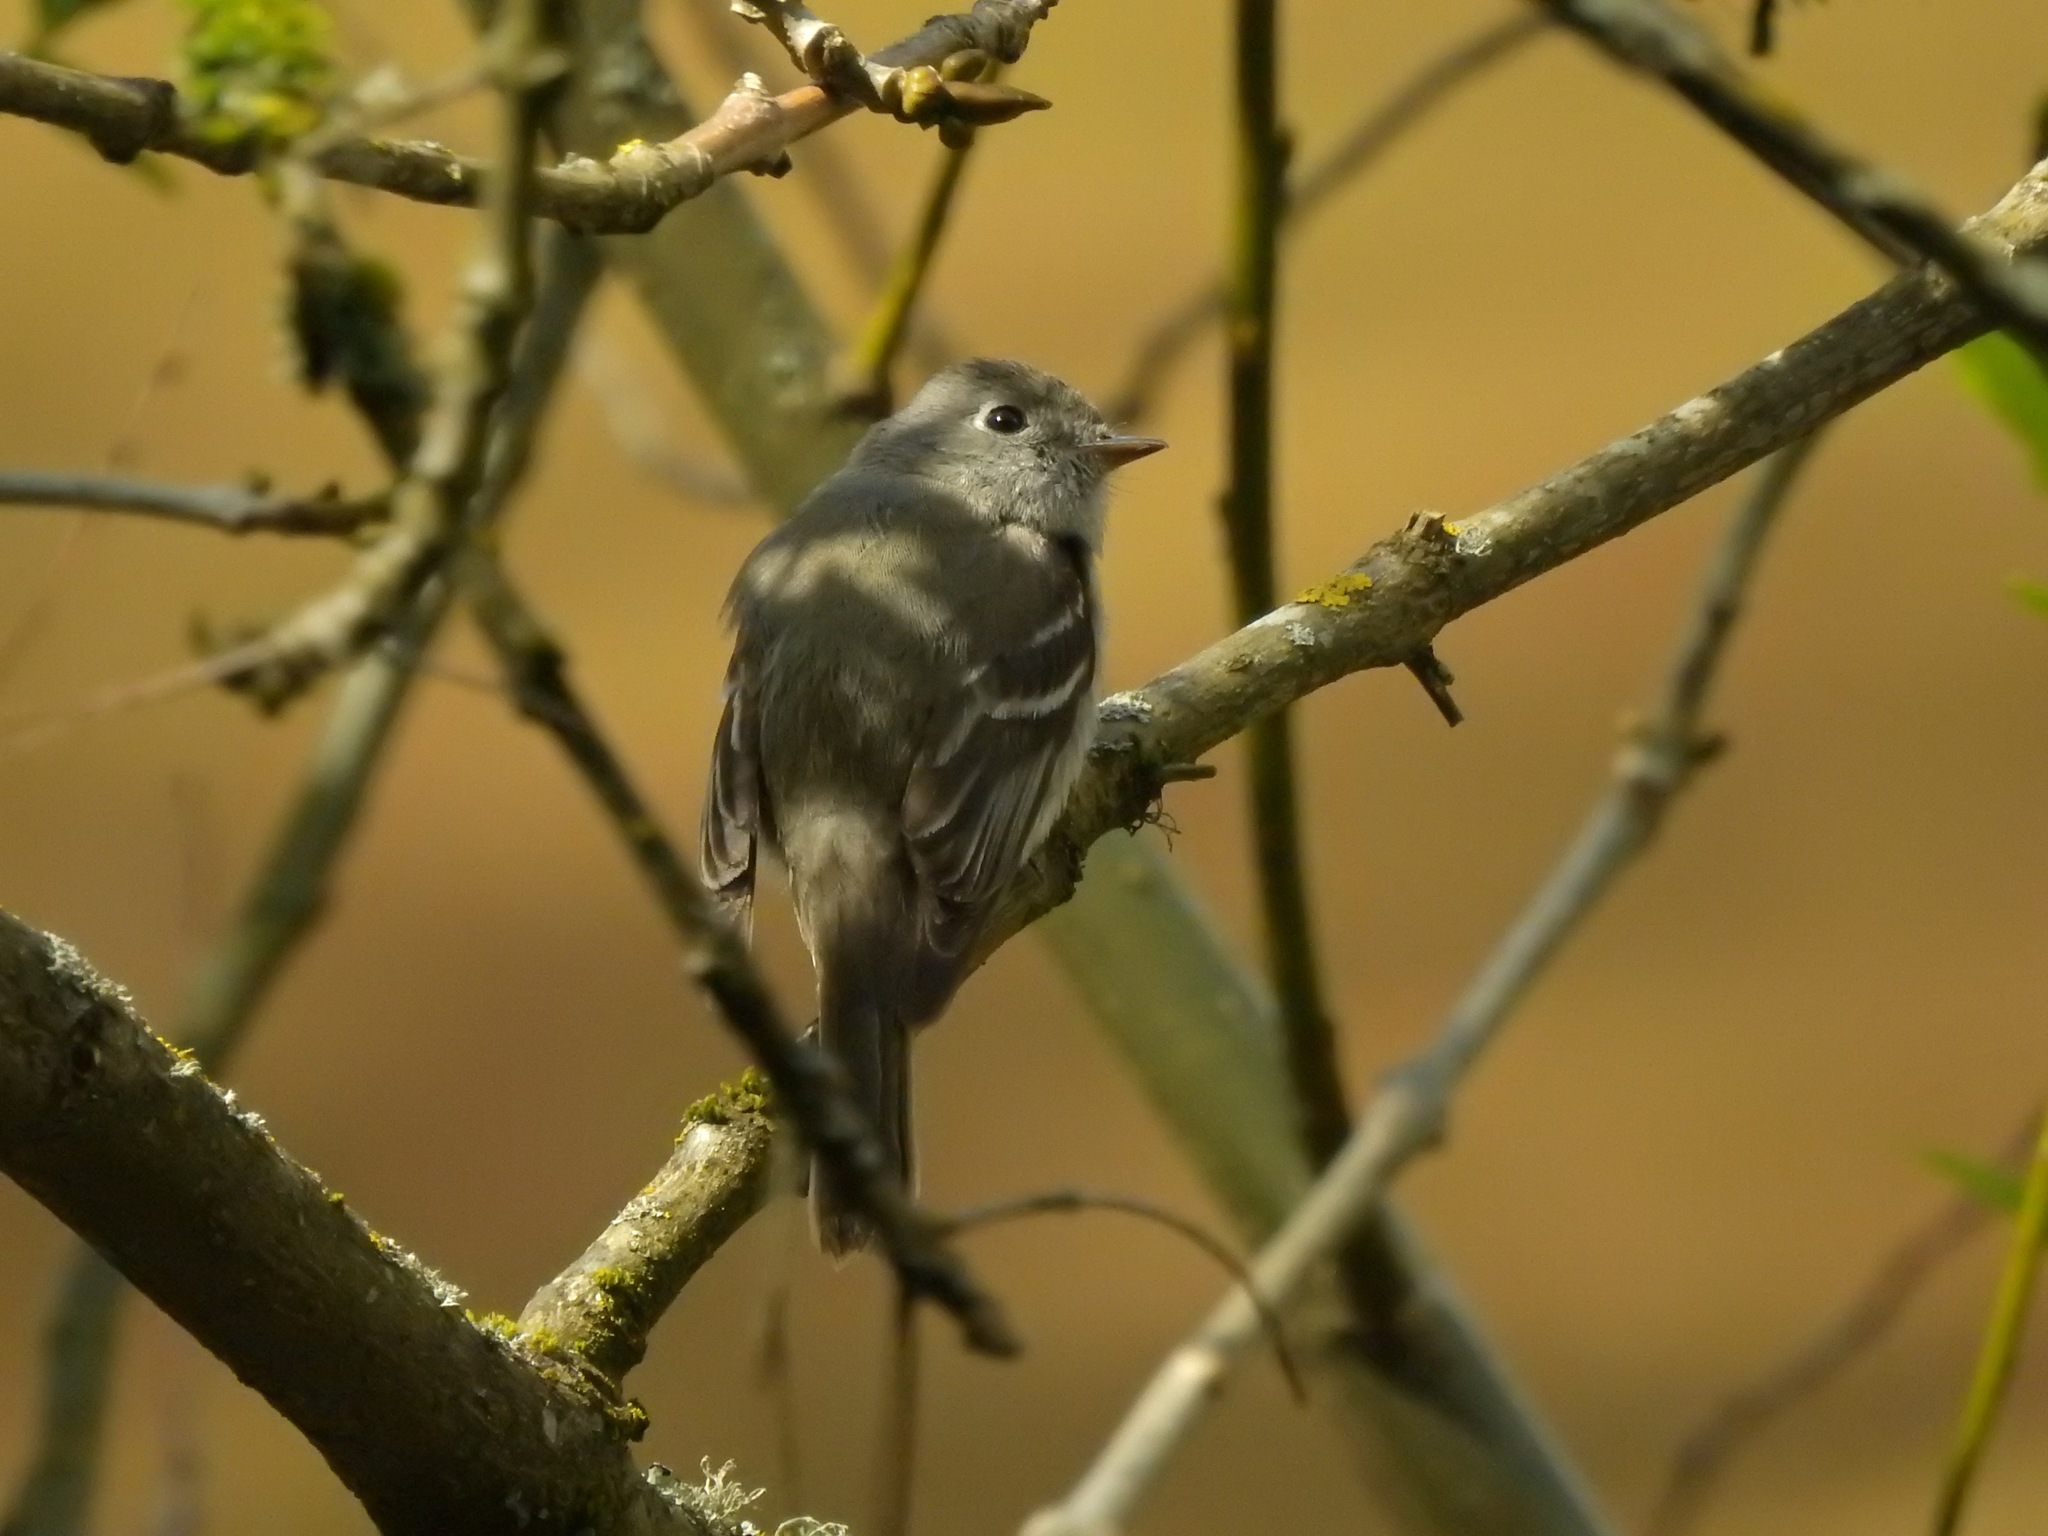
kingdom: Animalia
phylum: Chordata
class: Aves
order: Passeriformes
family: Tyrannidae
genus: Empidonax
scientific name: Empidonax hammondii
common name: Hammond's flycatcher
